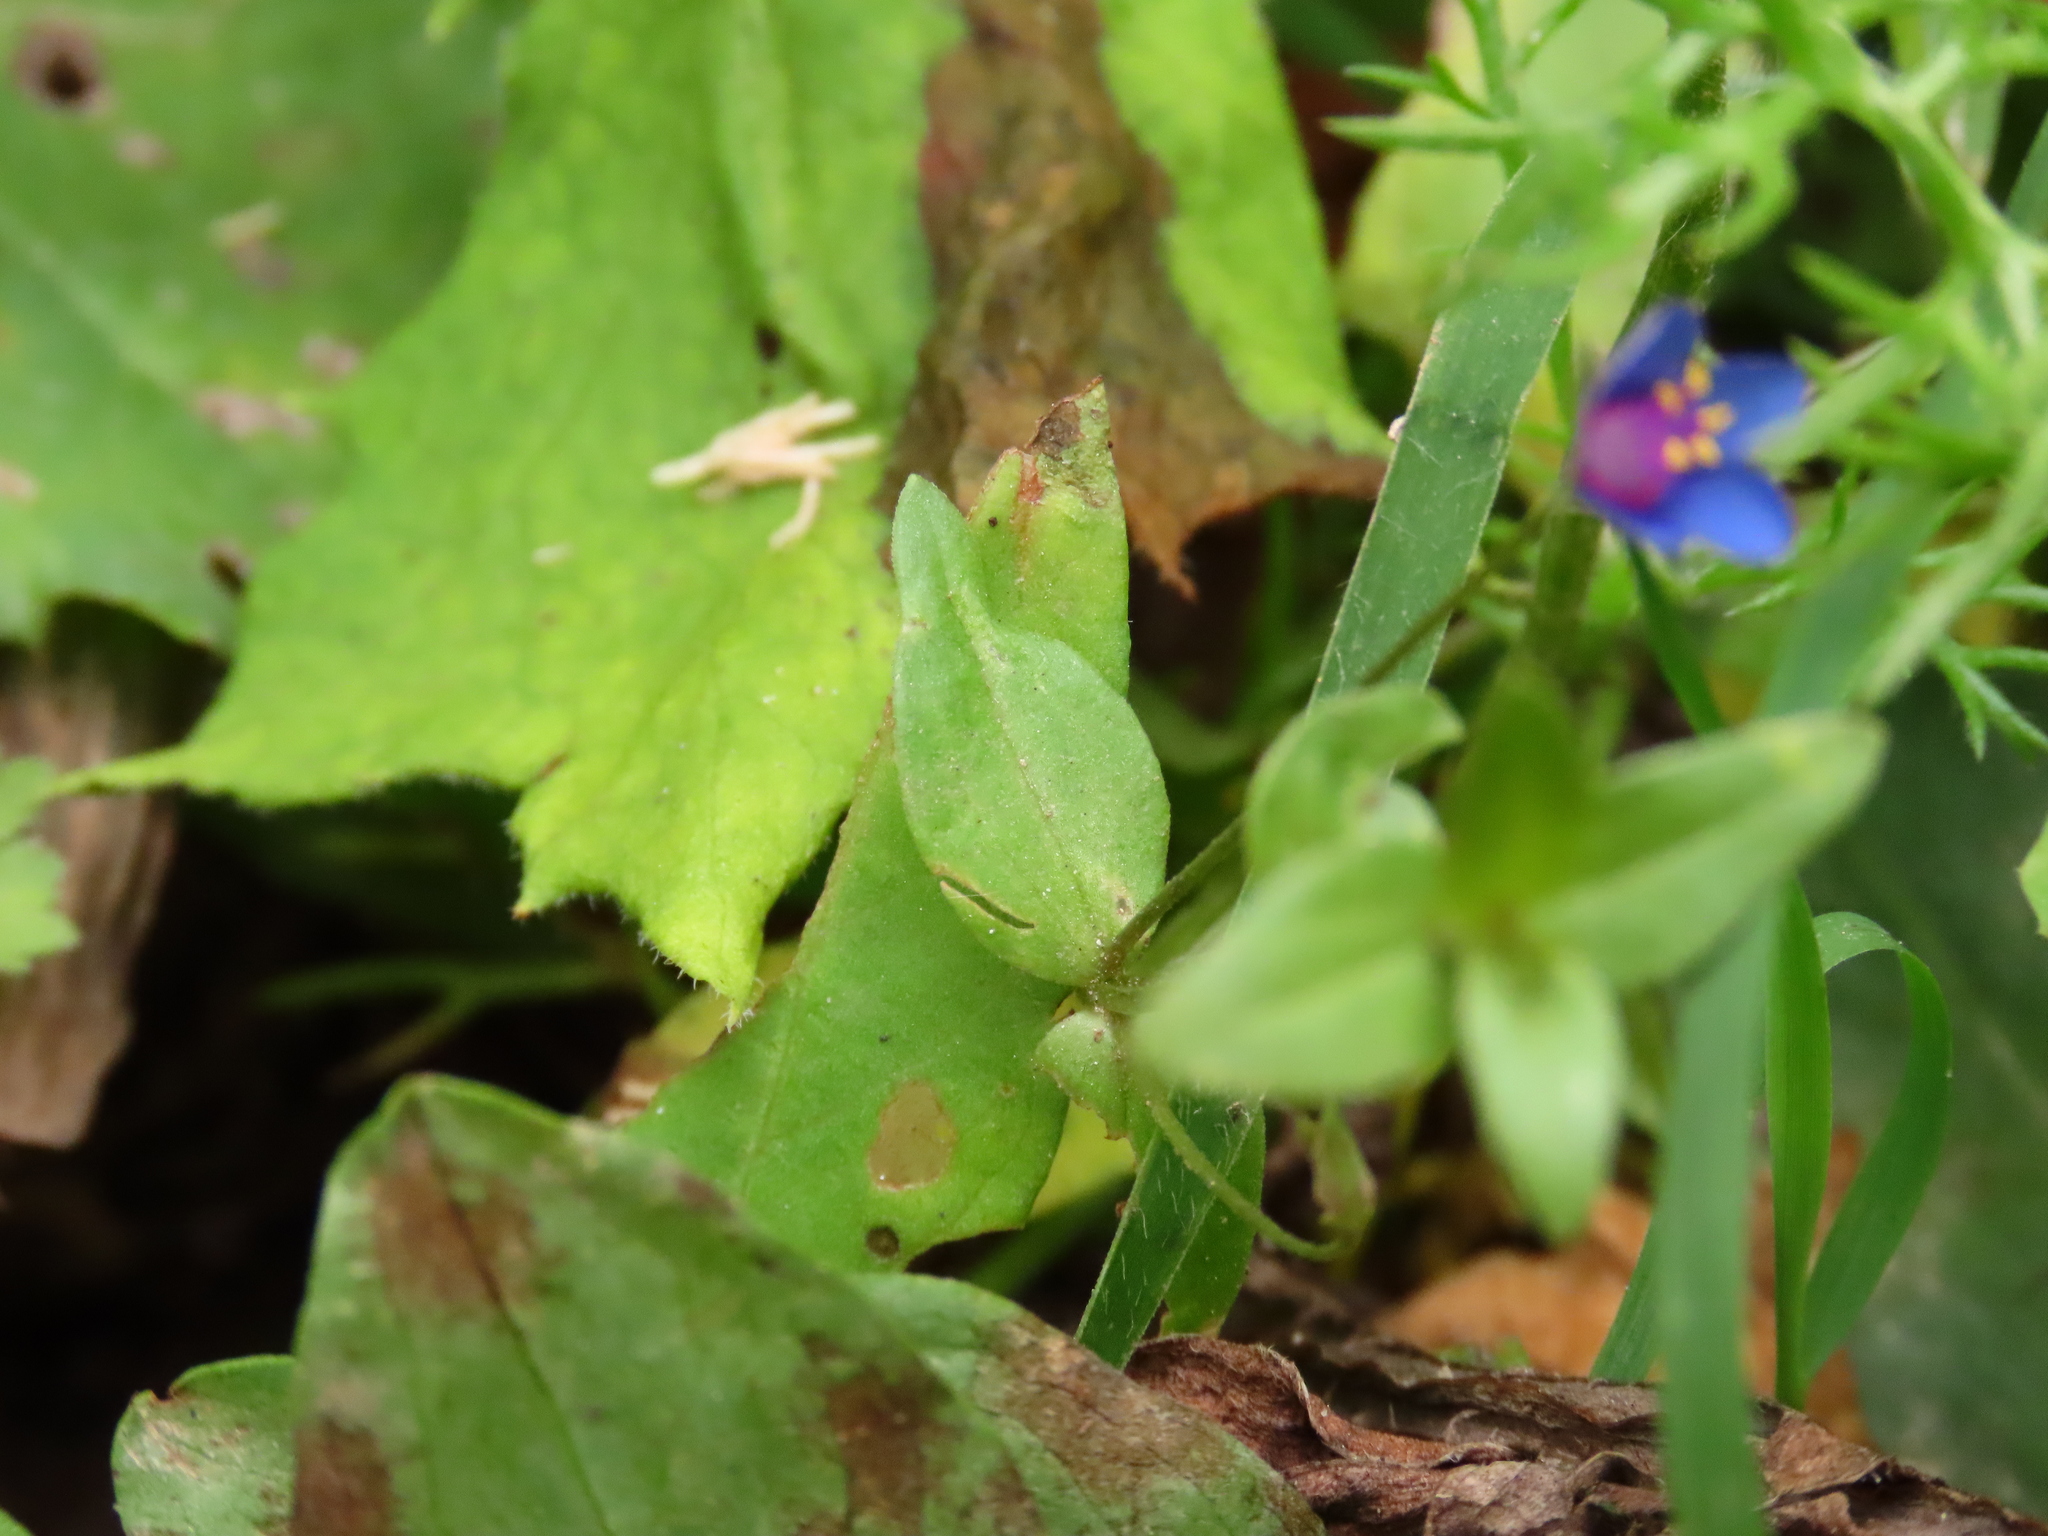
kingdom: Plantae
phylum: Tracheophyta
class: Magnoliopsida
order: Ericales
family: Primulaceae
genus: Lysimachia
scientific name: Lysimachia foemina
